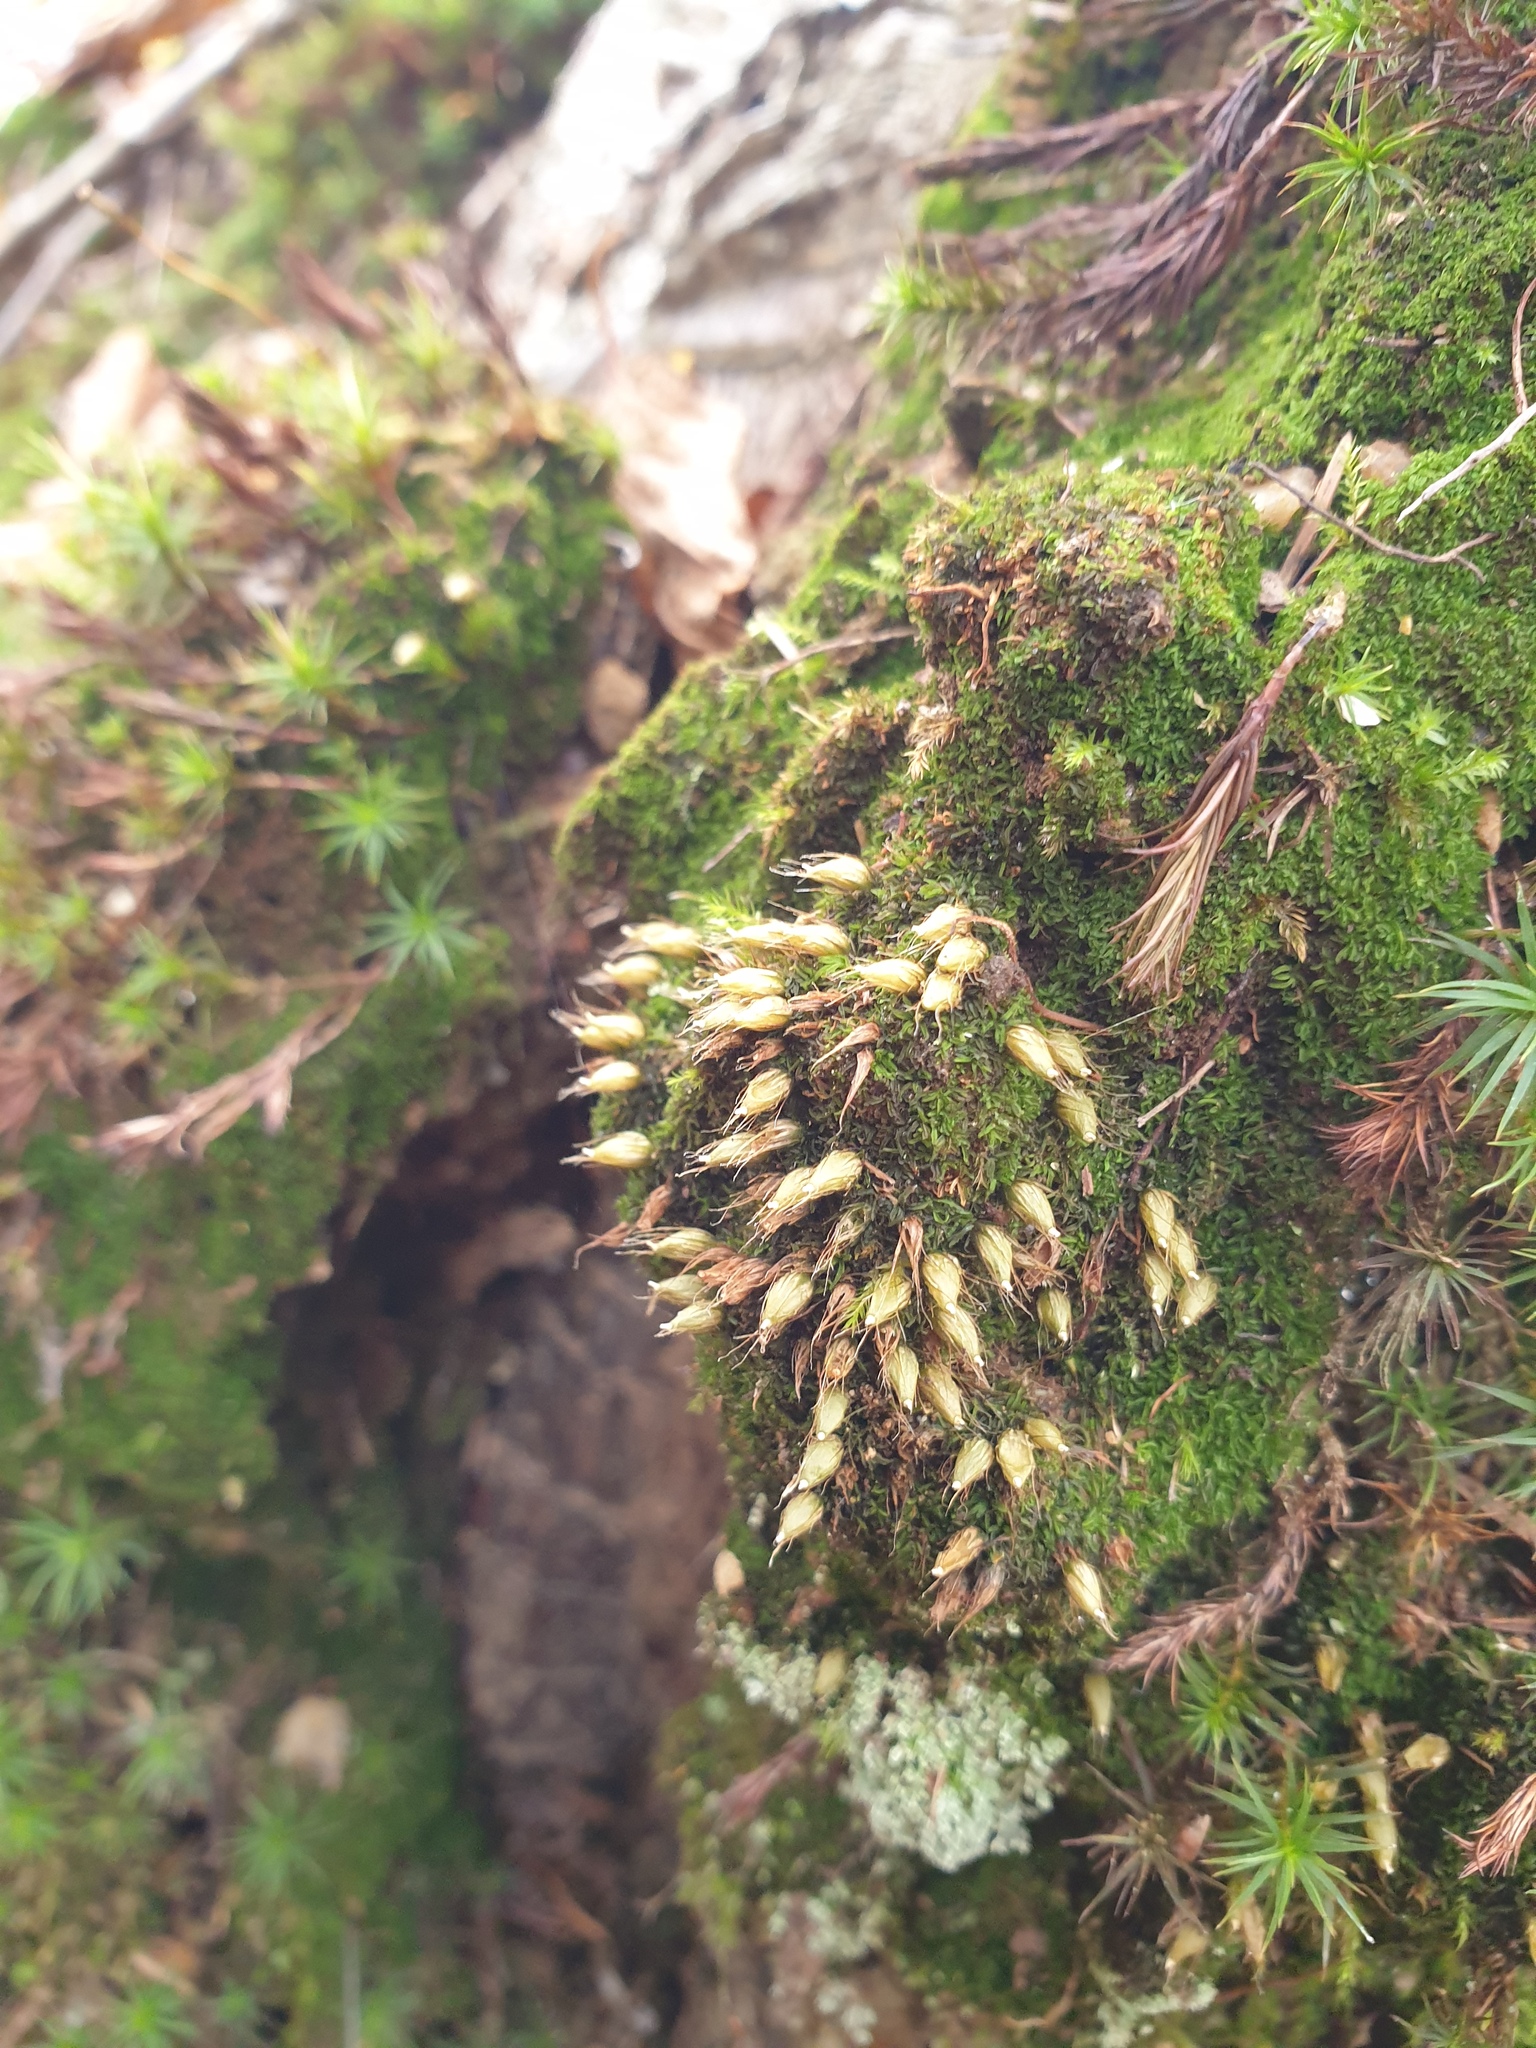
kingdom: Plantae
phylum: Bryophyta
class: Bryopsida
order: Diphysciales
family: Diphysciaceae
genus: Diphyscium
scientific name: Diphyscium foliosum
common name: Nut moss
